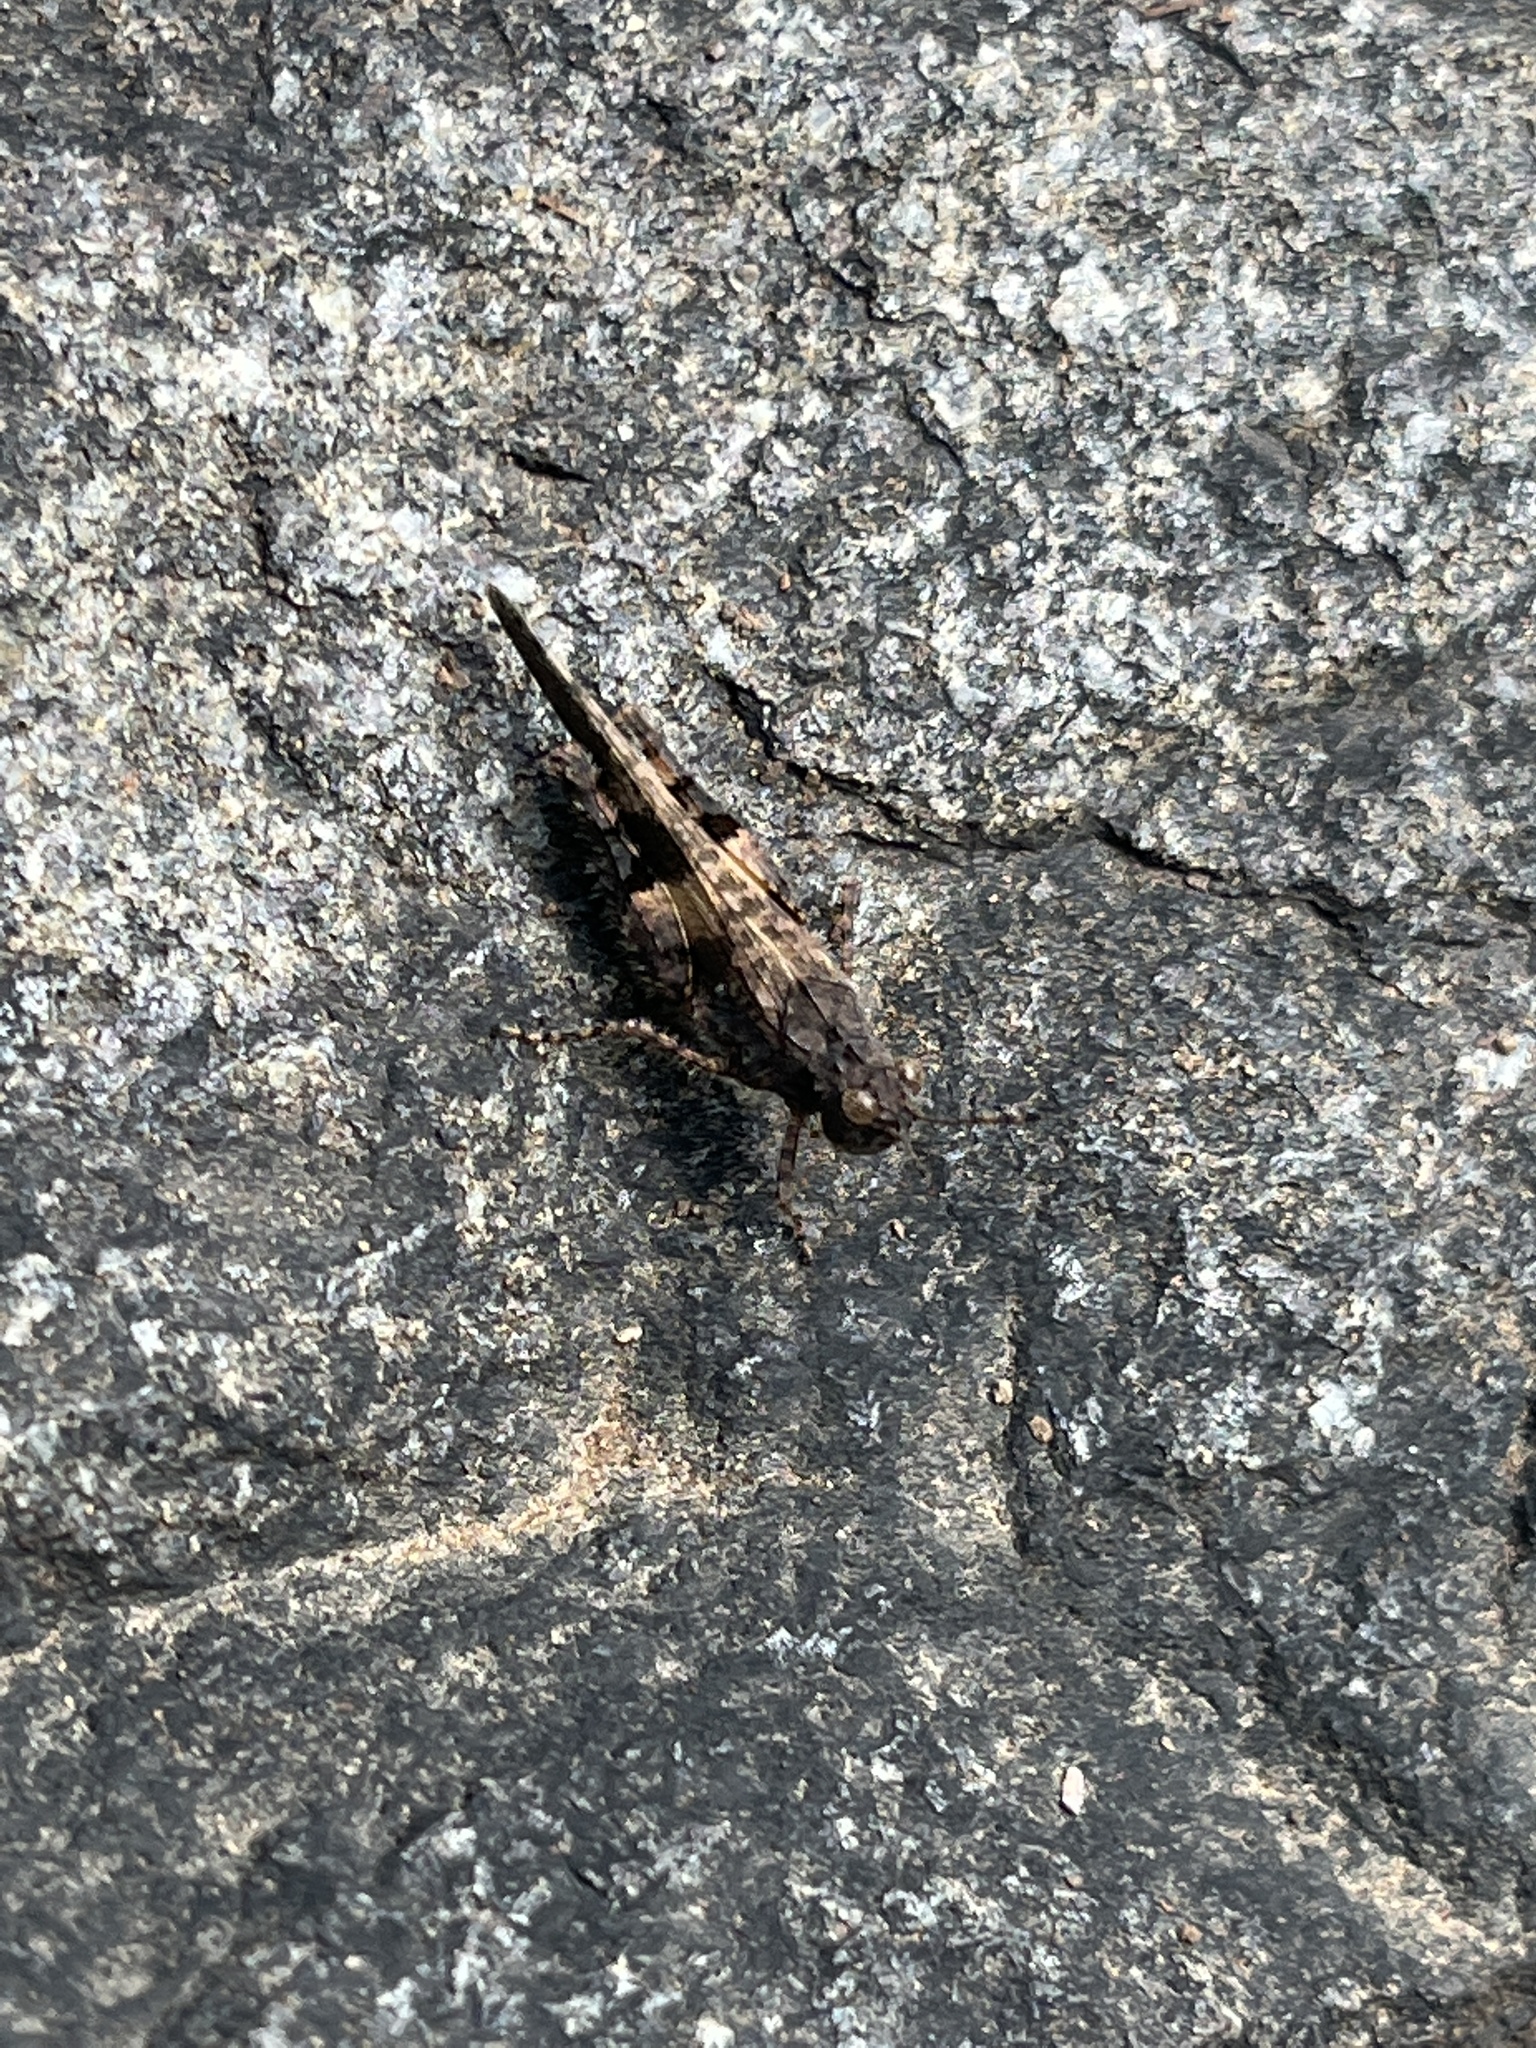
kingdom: Animalia
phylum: Arthropoda
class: Insecta
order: Orthoptera
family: Acrididae
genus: Trilophidia
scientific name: Trilophidia conturbata
